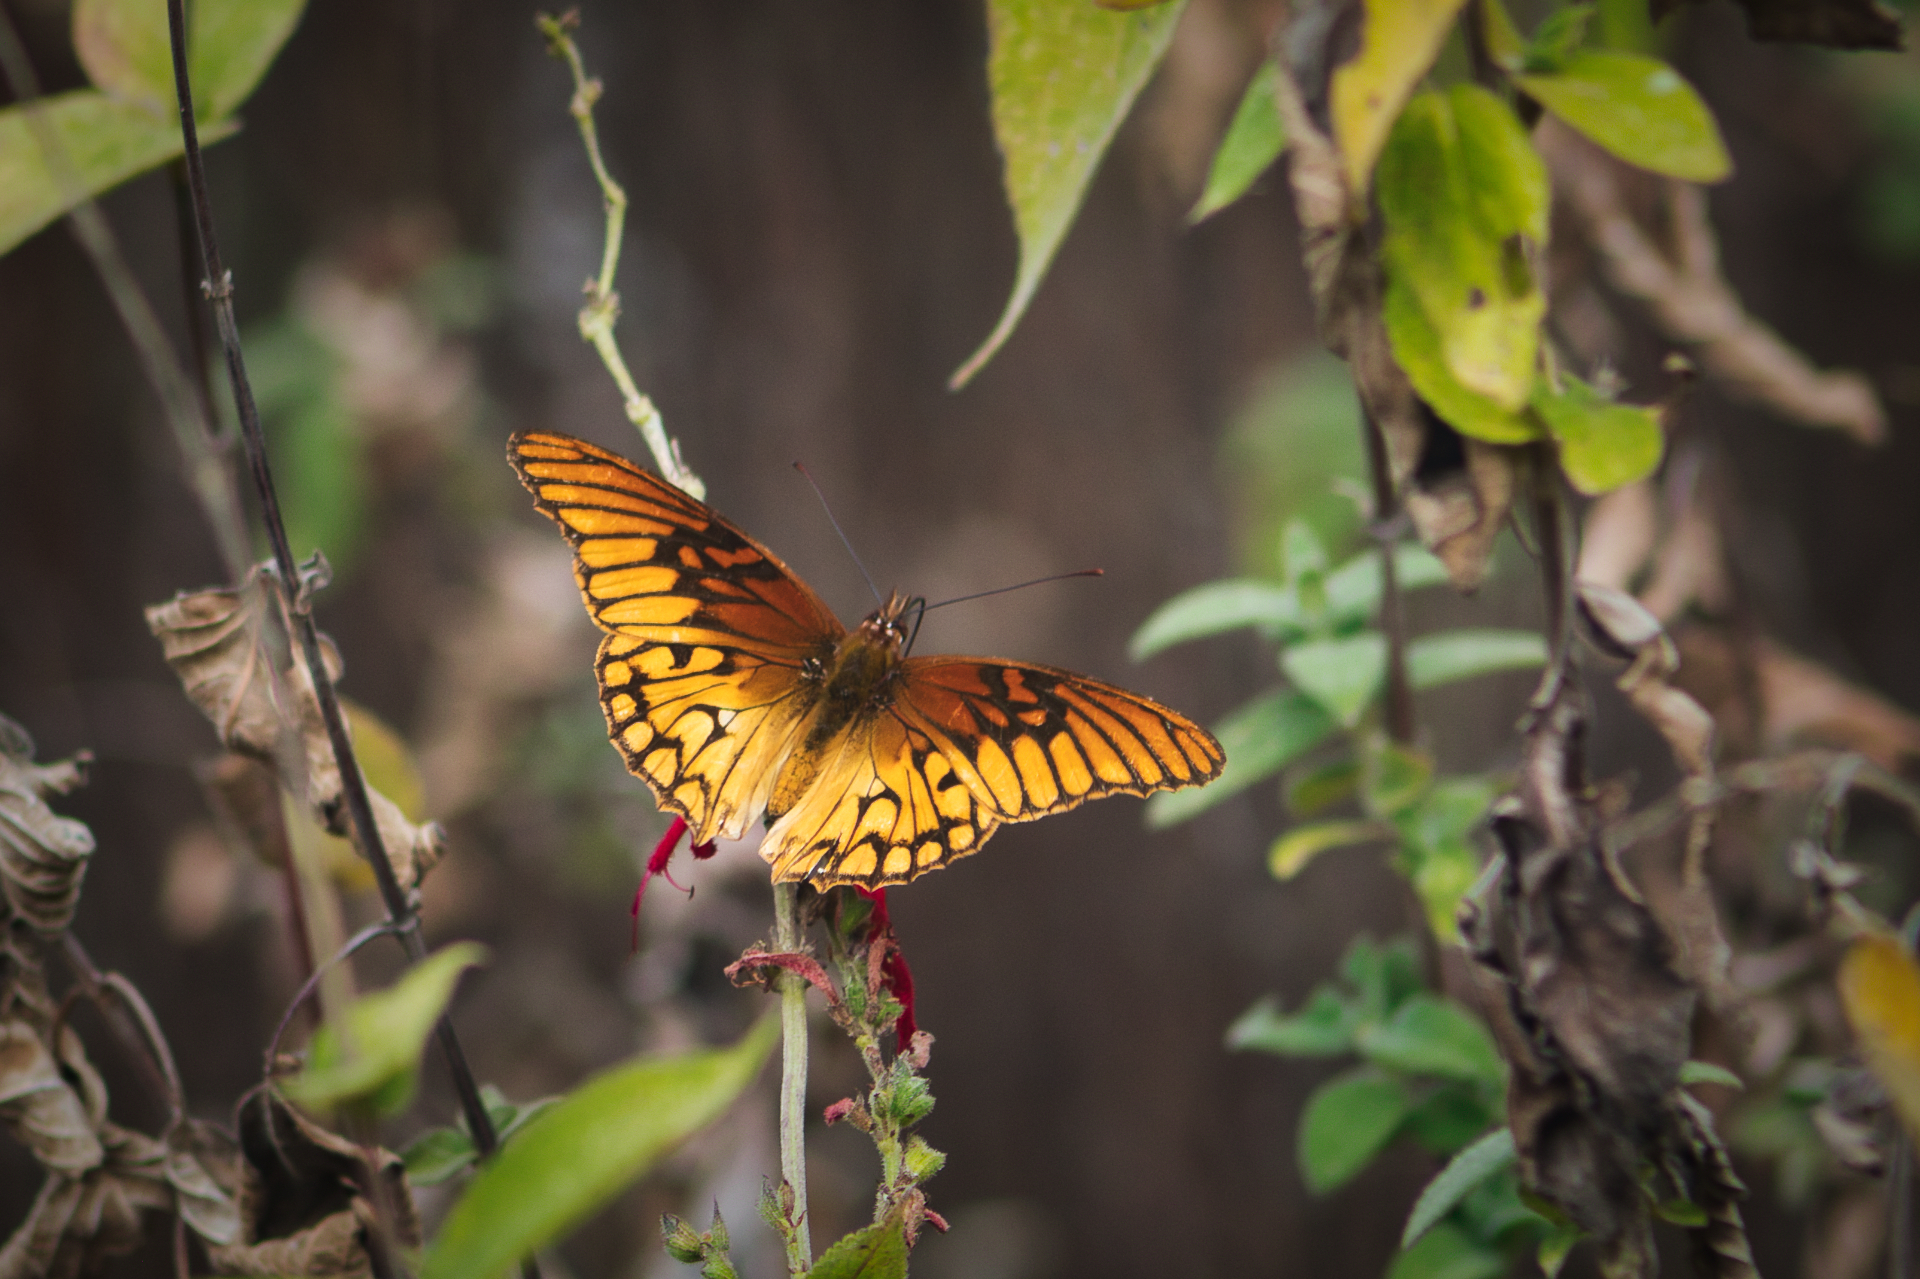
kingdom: Animalia
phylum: Arthropoda
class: Insecta
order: Lepidoptera
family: Nymphalidae
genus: Dione
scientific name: Dione moneta
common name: Mexican silverspot
